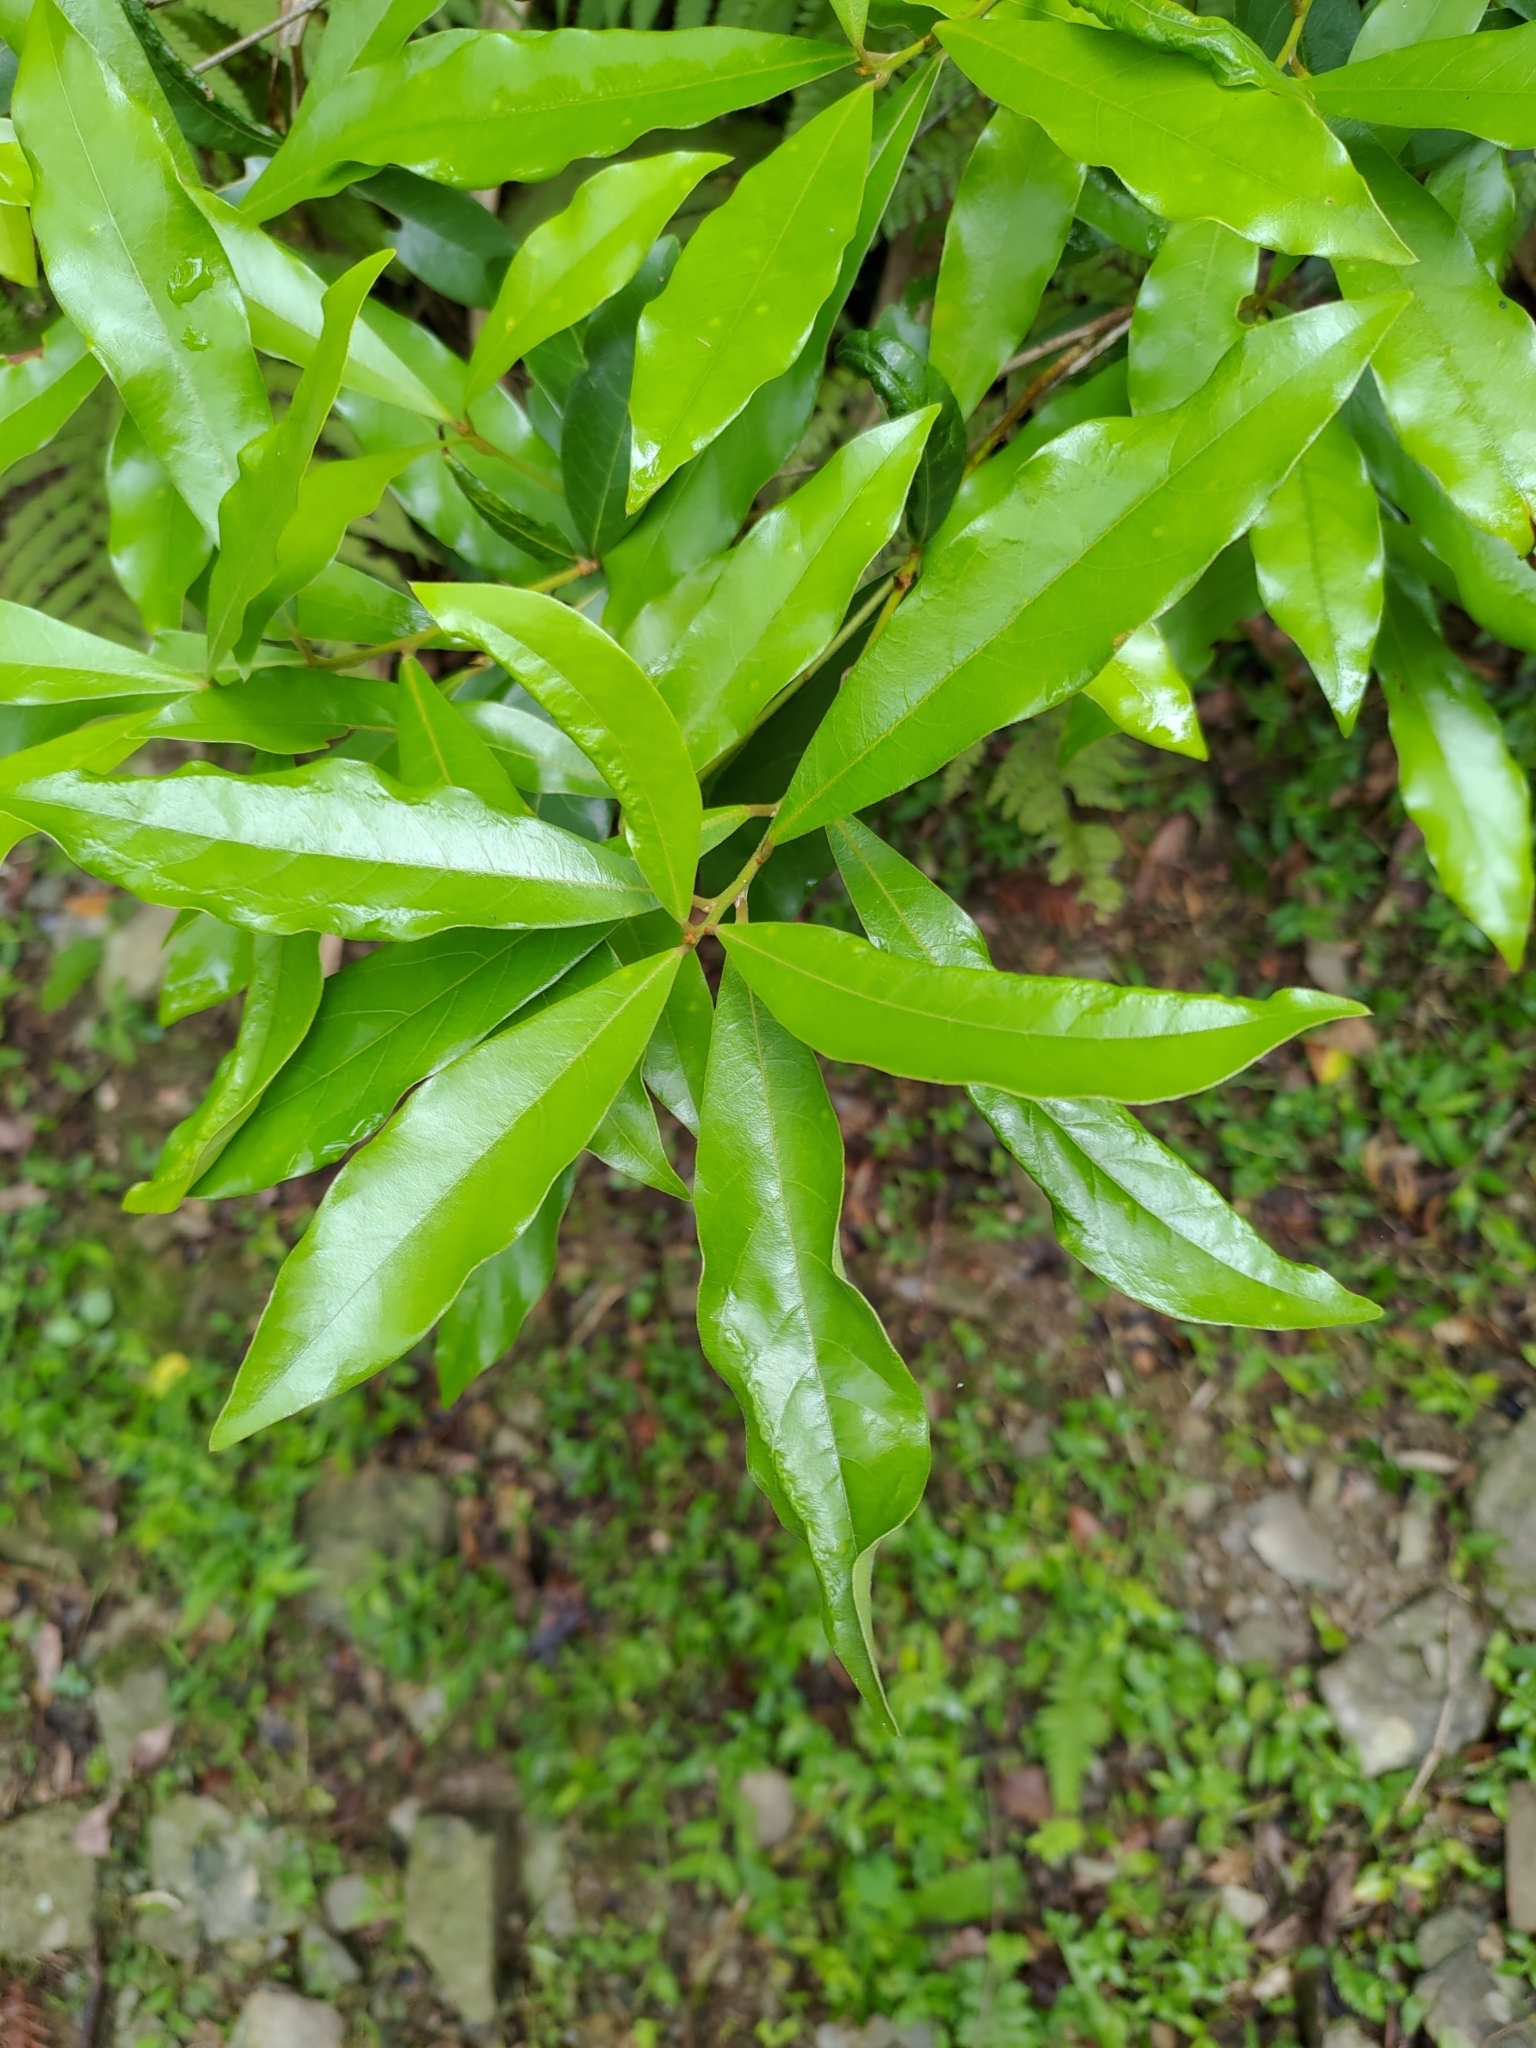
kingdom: Plantae
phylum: Tracheophyta
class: Magnoliopsida
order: Laurales
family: Lauraceae
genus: Litsea
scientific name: Litsea hypophaea
